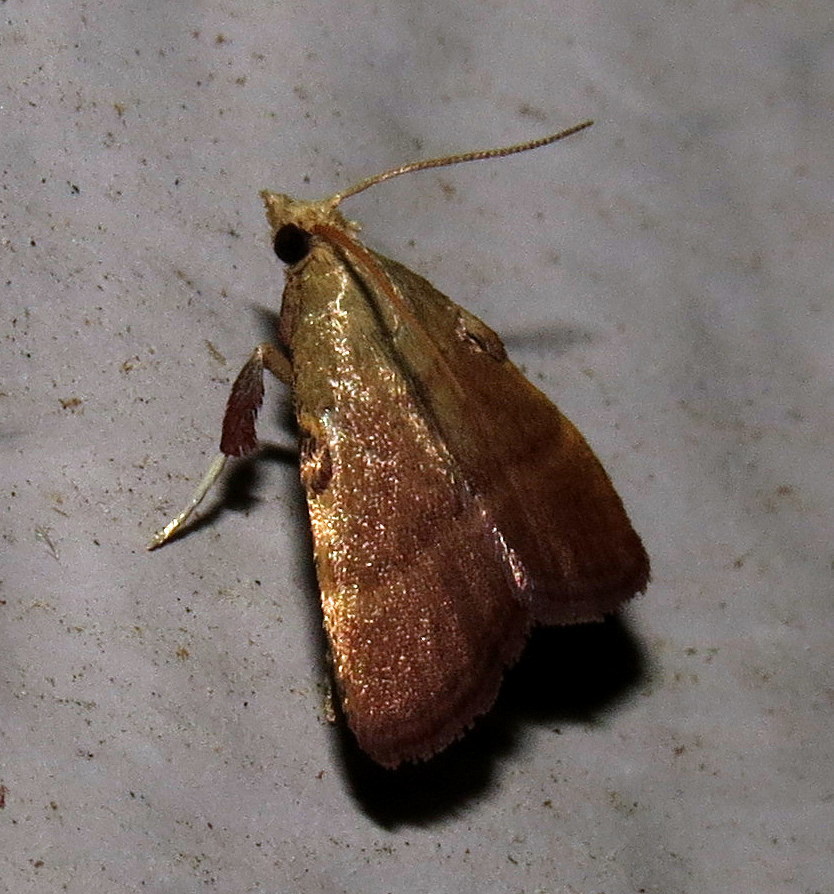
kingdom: Animalia
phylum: Arthropoda
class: Insecta
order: Lepidoptera
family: Pyralidae
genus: Condylolomia
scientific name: Condylolomia participialis
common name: Drab condylolomia moth
